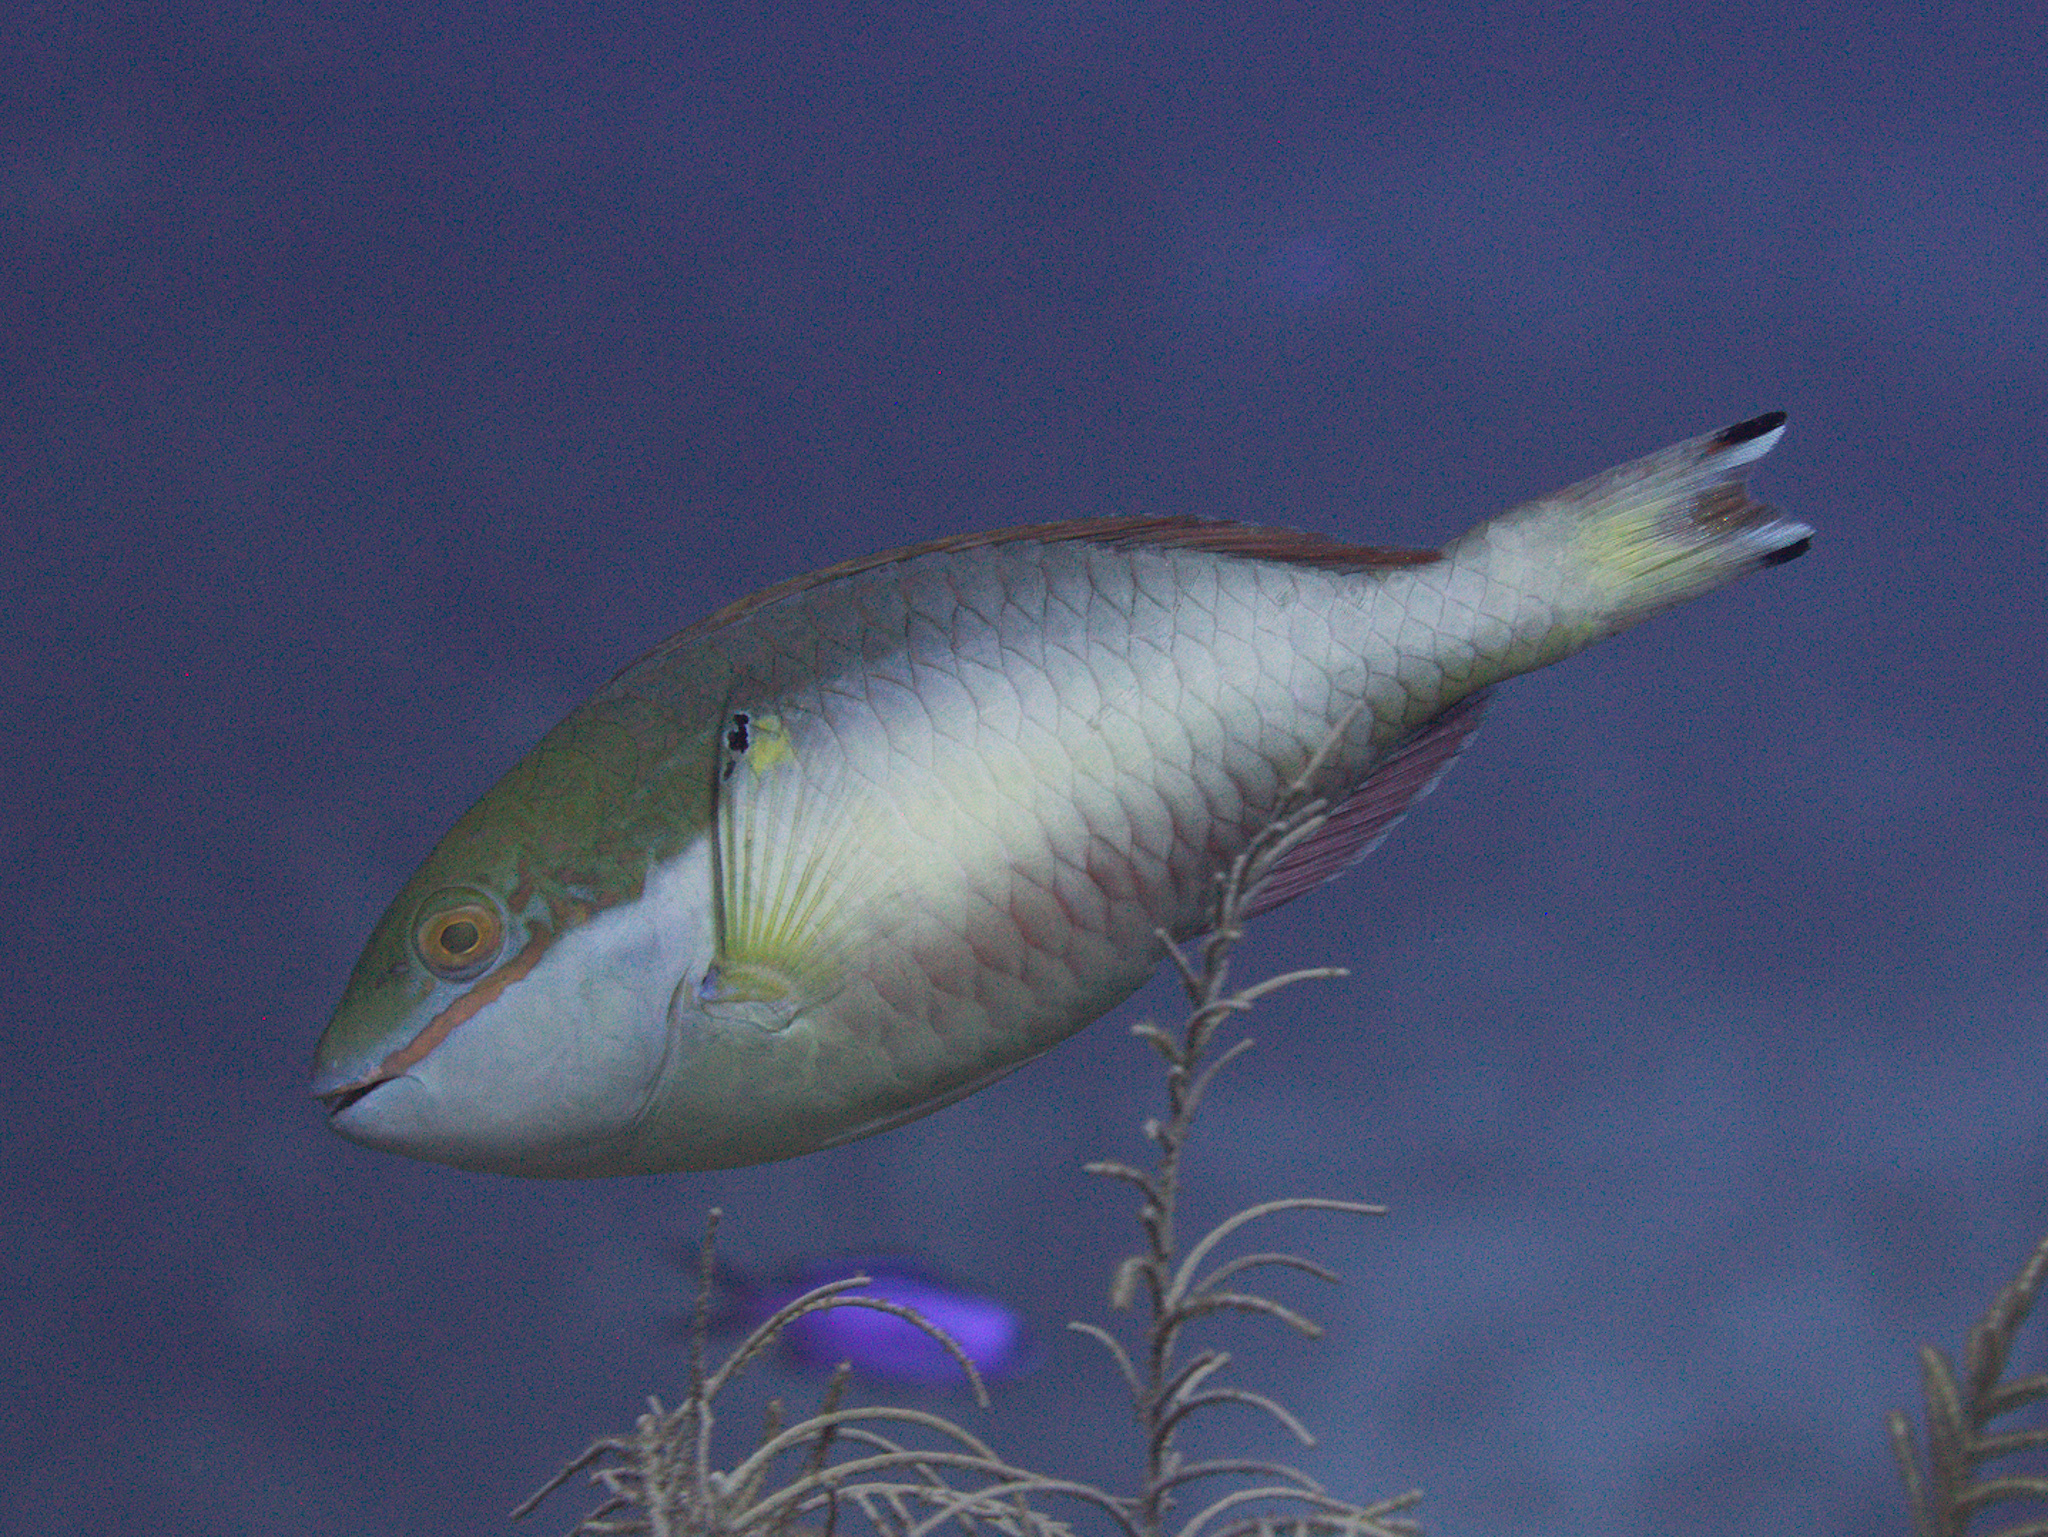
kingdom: Animalia
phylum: Chordata
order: Perciformes
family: Scaridae
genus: Sparisoma
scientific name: Sparisoma aurofrenatum
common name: Redband parrotfish
